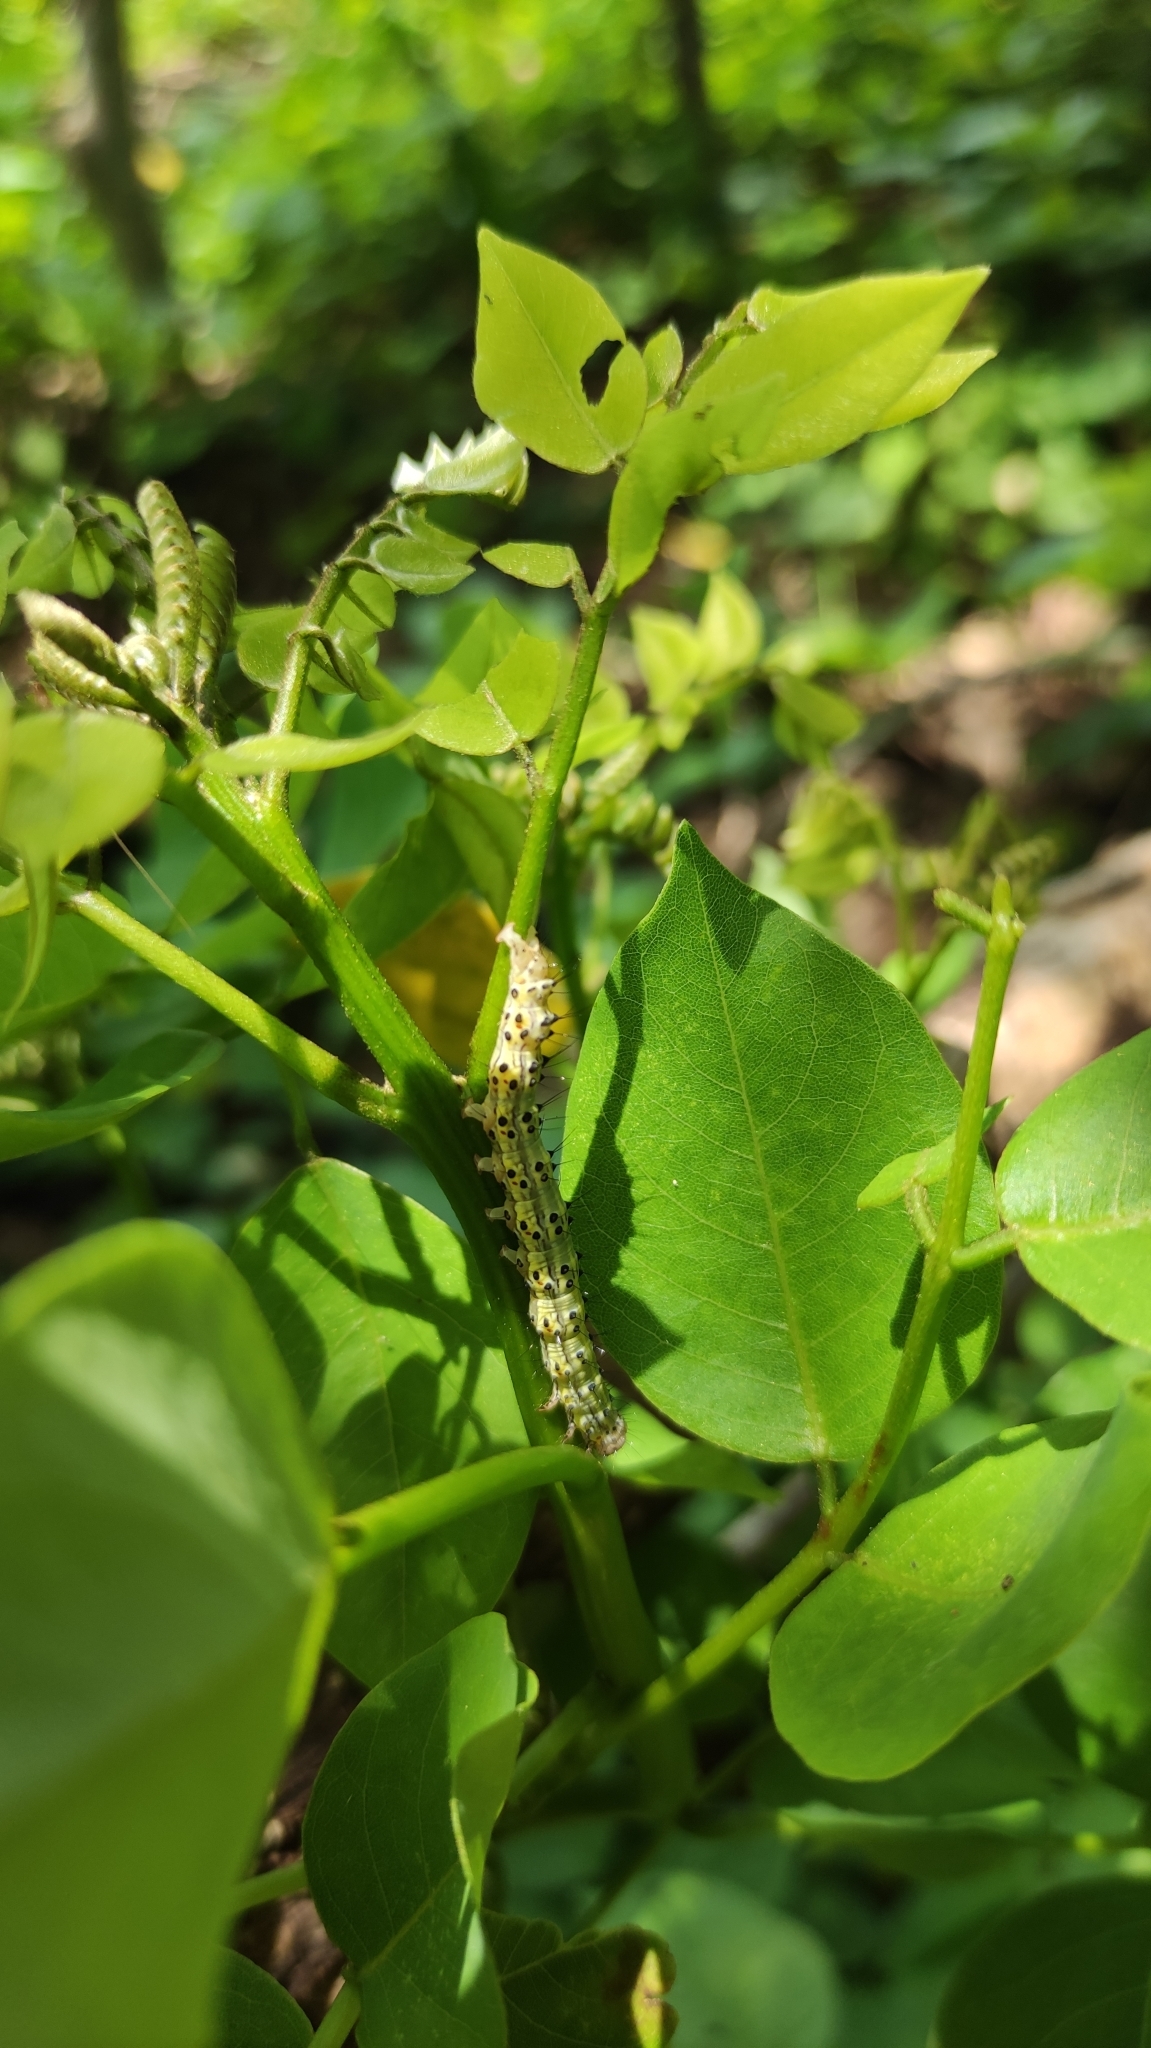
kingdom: Animalia
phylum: Arthropoda
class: Insecta
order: Lepidoptera
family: Erebidae
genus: Azeta
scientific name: Azeta melanea
